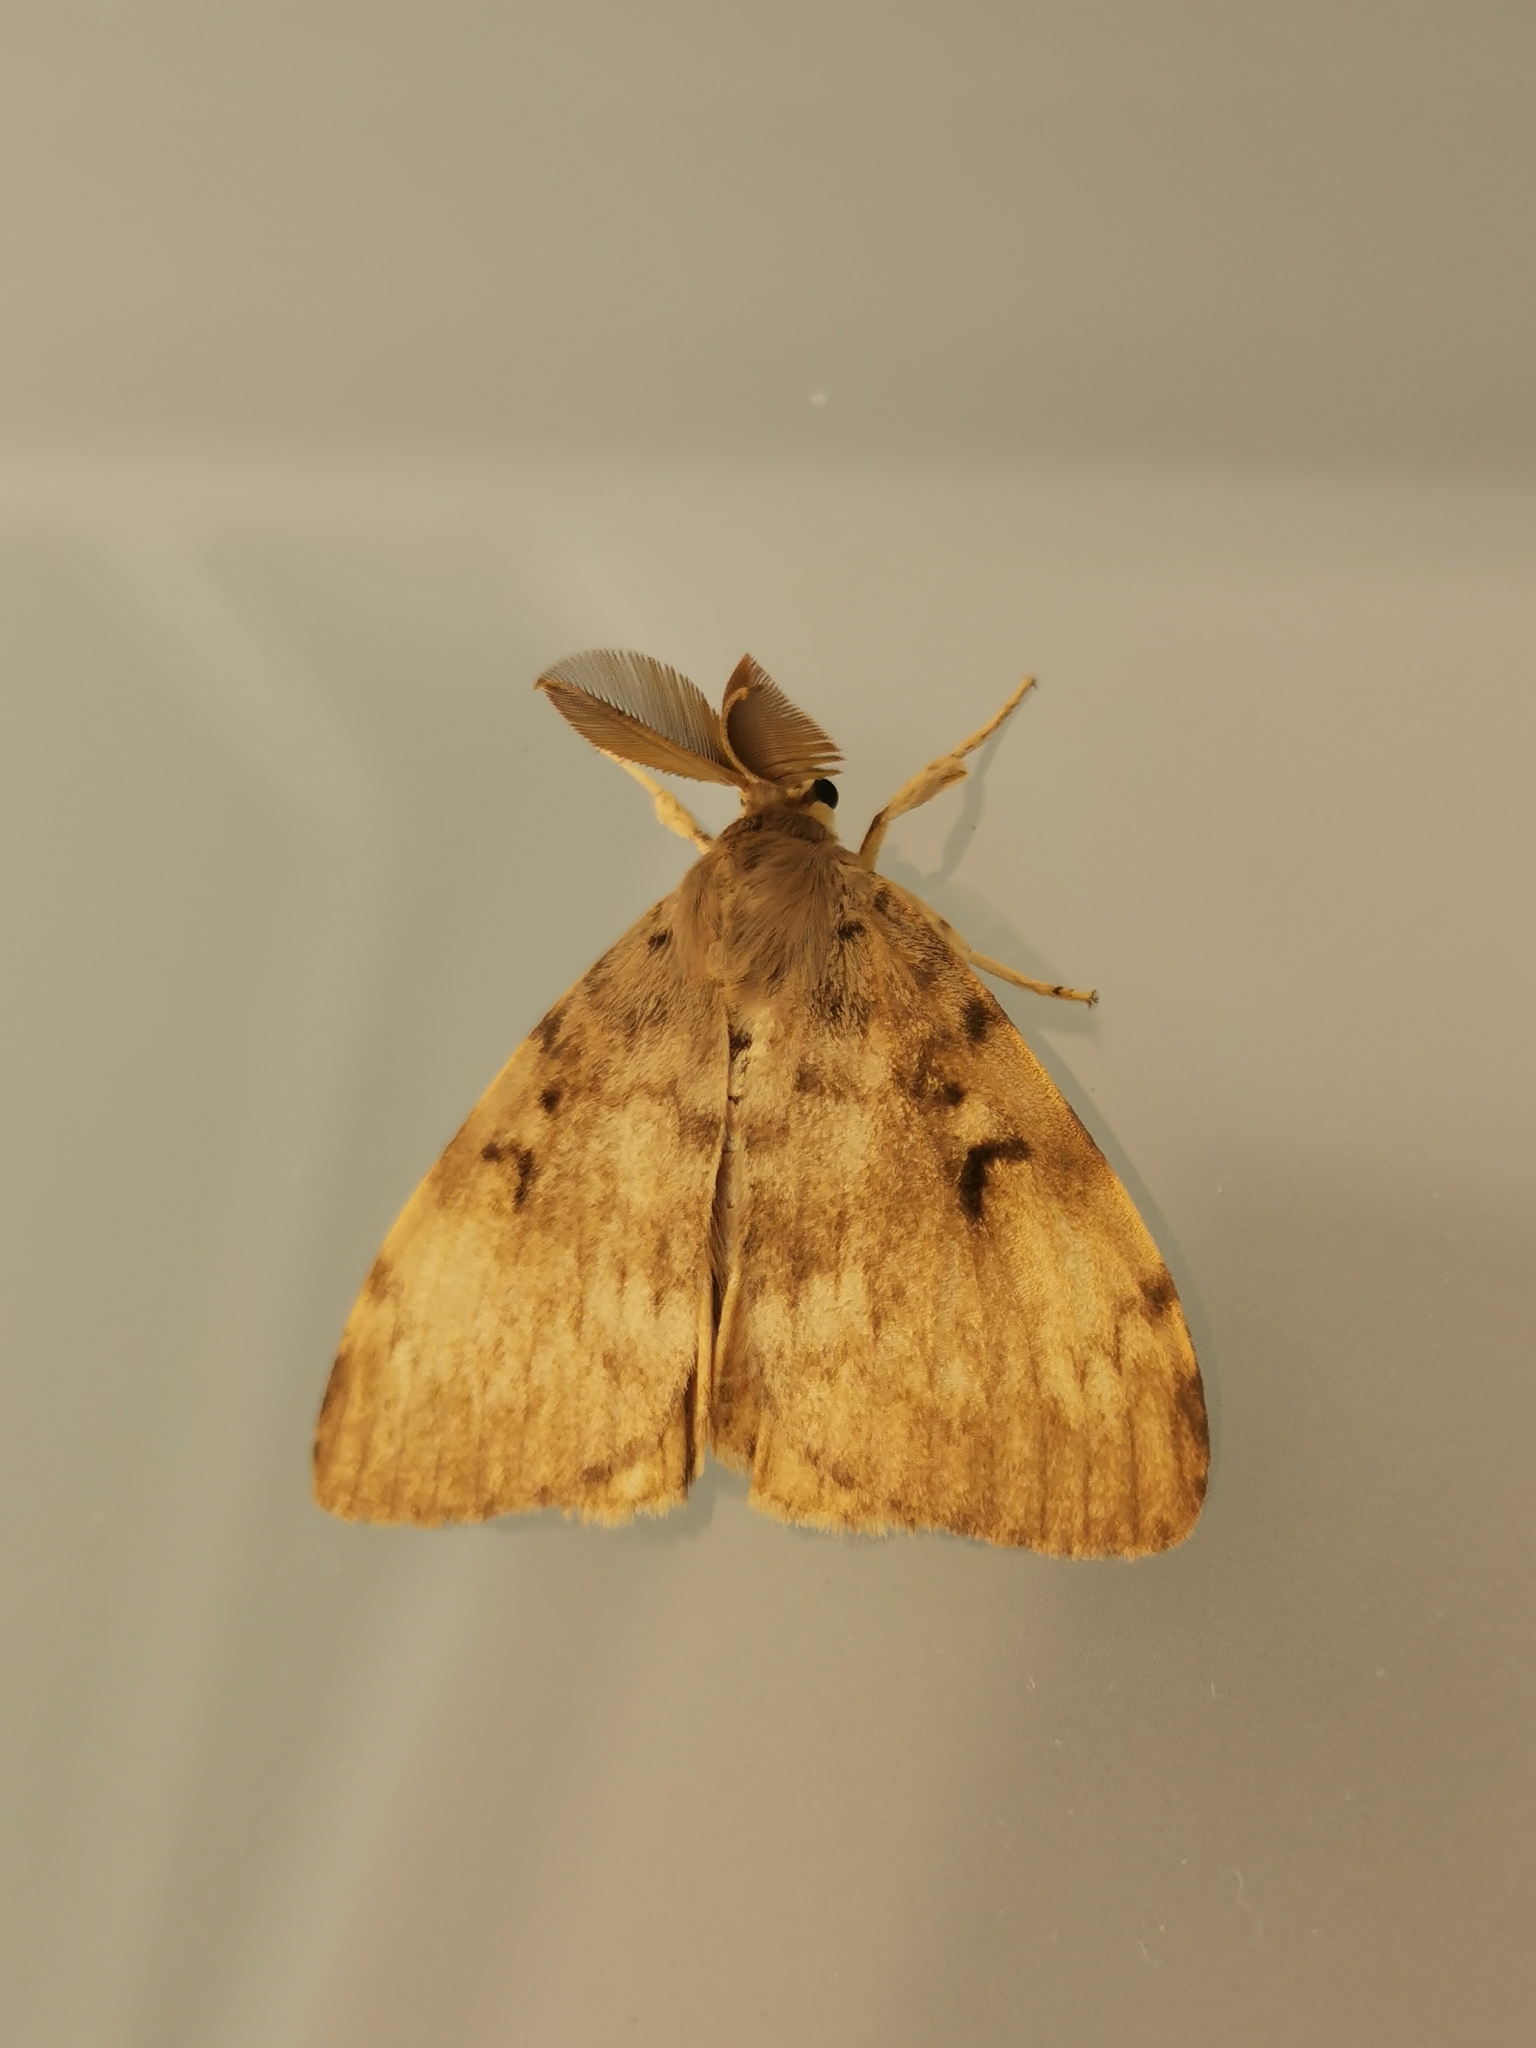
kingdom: Animalia
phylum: Arthropoda
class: Insecta
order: Lepidoptera
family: Erebidae
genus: Lymantria
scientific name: Lymantria dispar
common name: Gypsy moth
